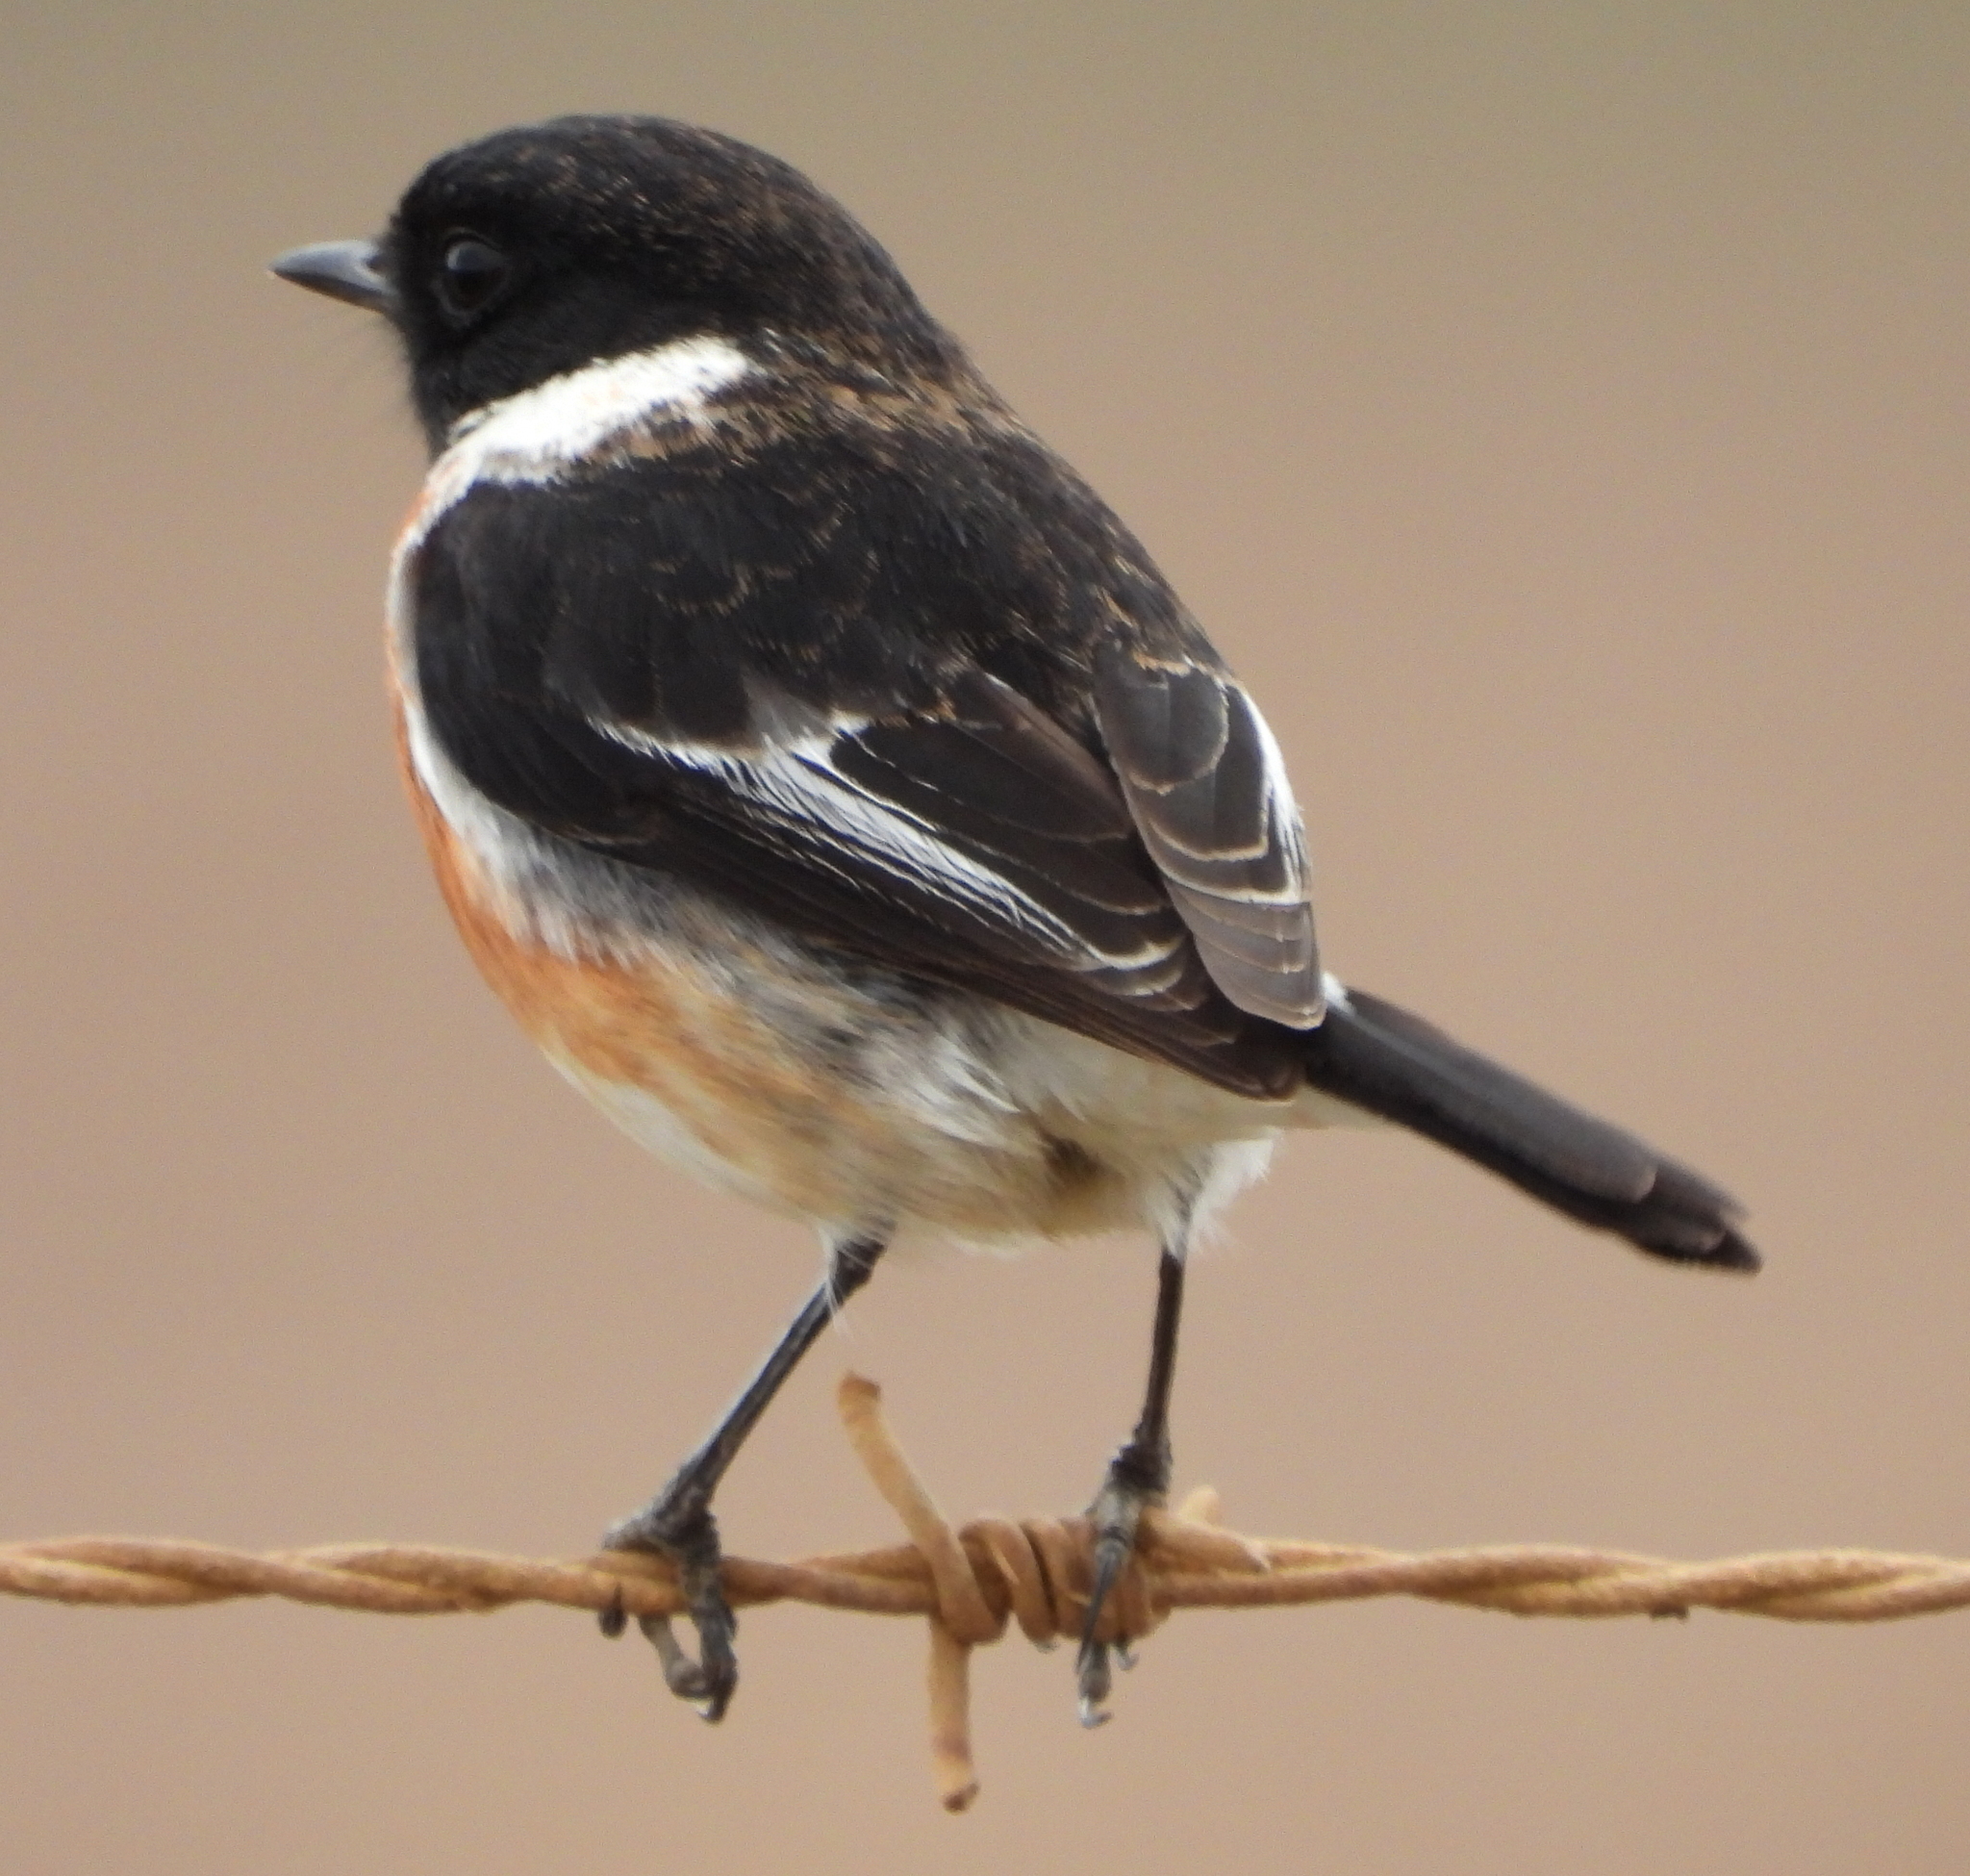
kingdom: Animalia
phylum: Chordata
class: Aves
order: Passeriformes
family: Muscicapidae
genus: Saxicola
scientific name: Saxicola torquatus
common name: African stonechat
